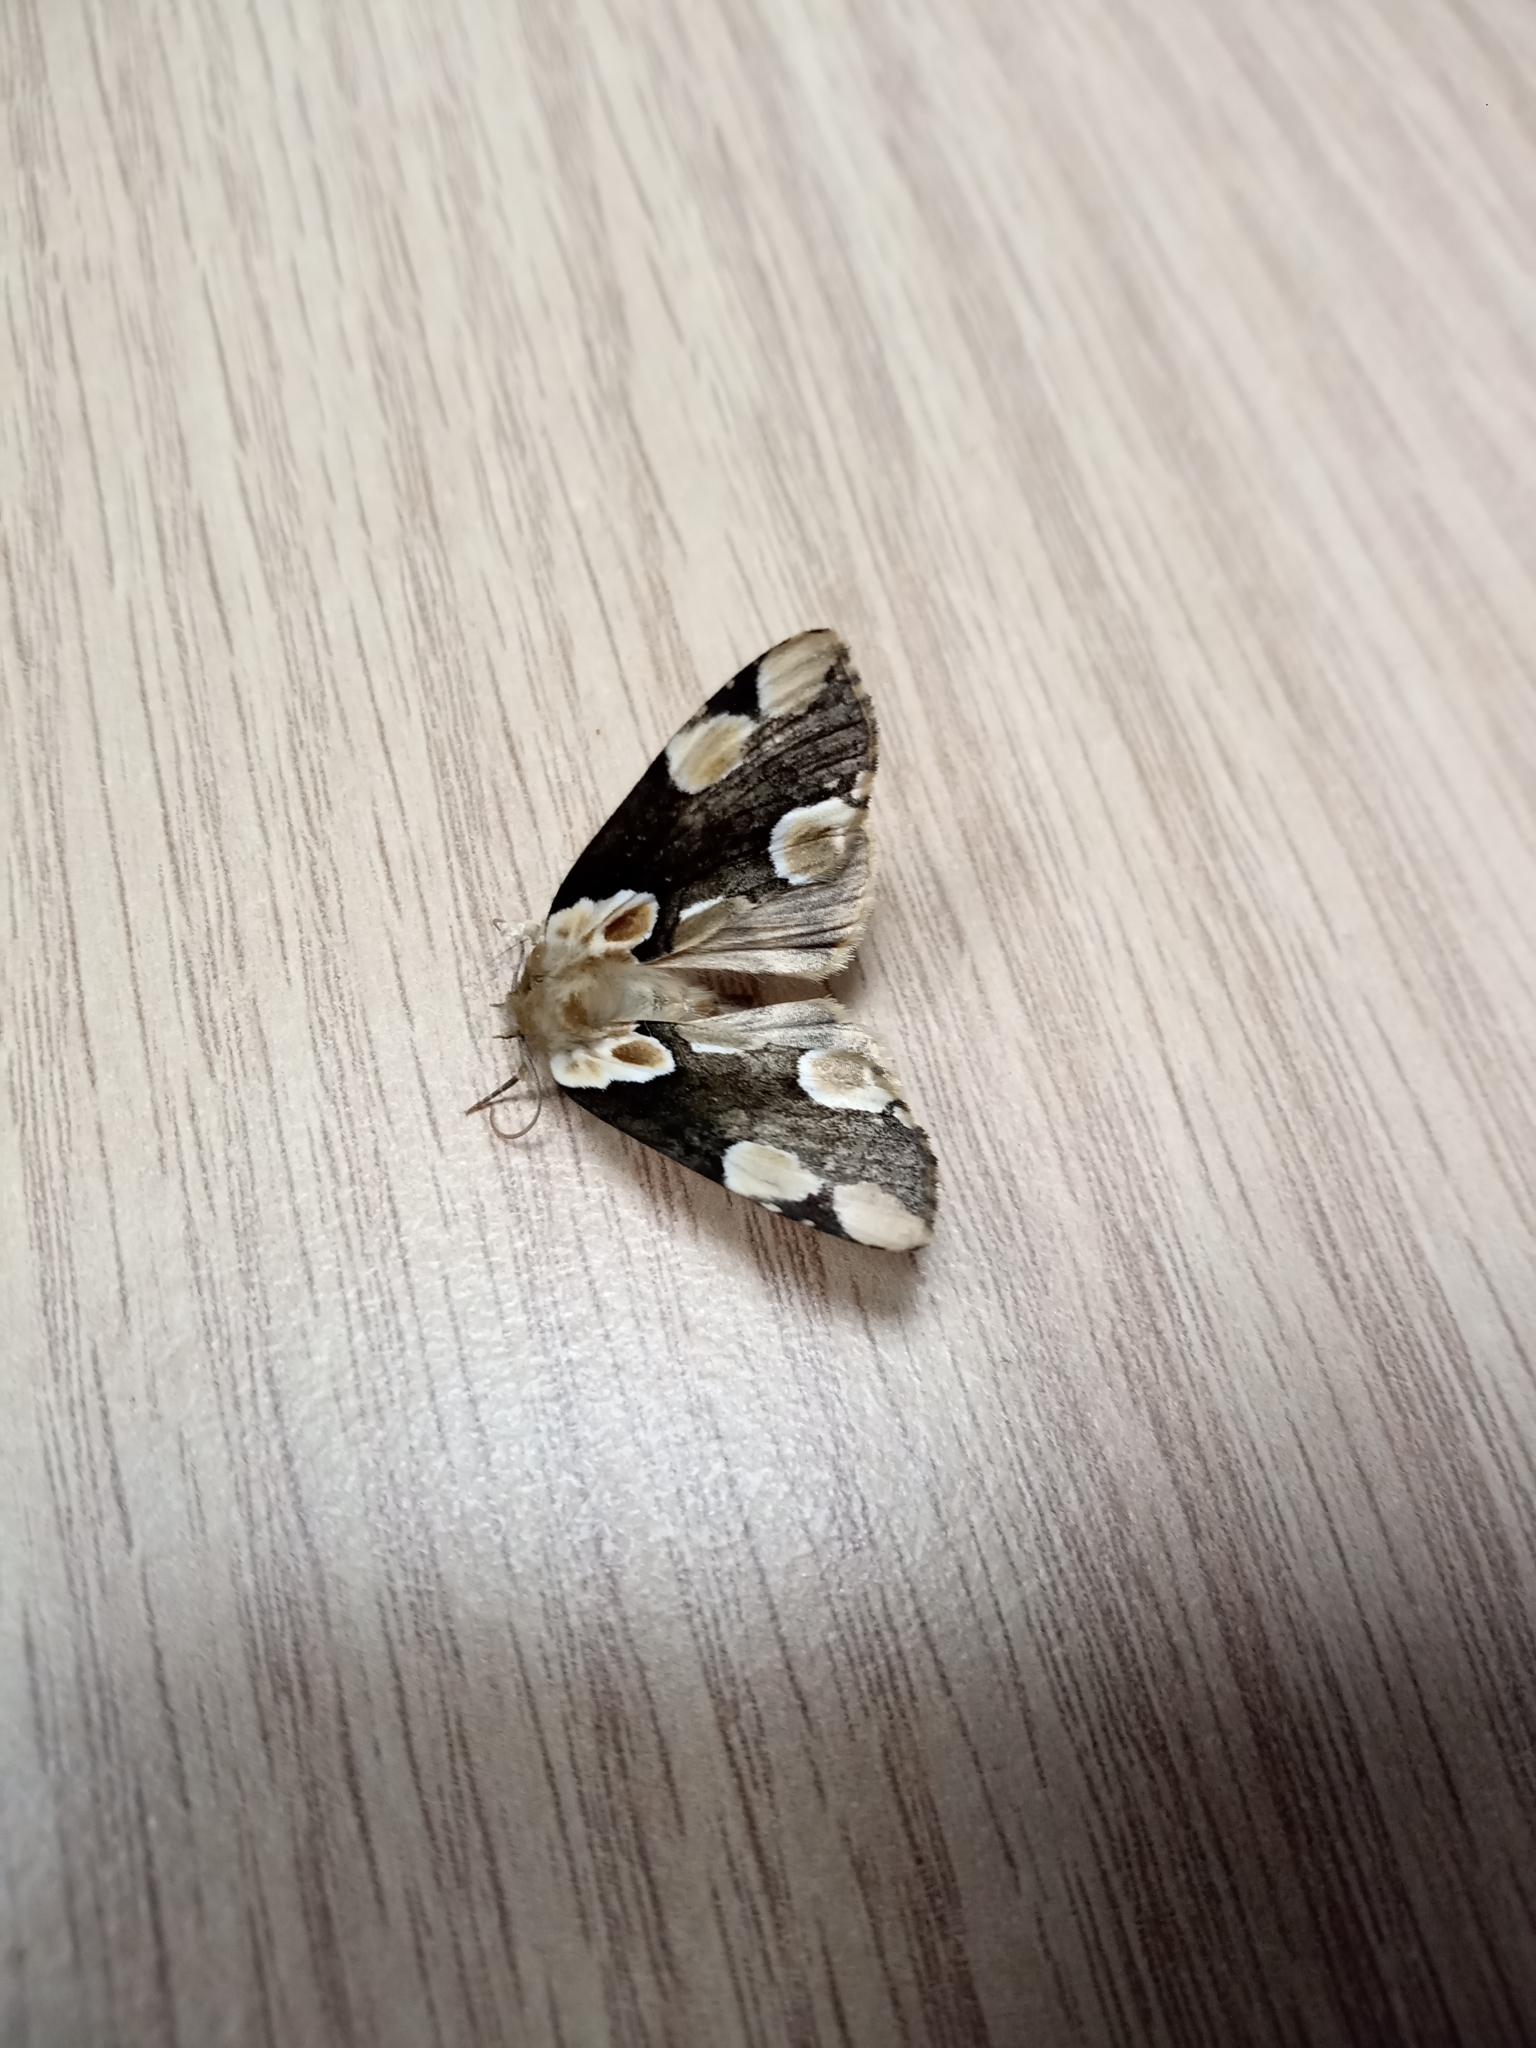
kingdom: Animalia
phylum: Arthropoda
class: Insecta
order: Lepidoptera
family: Drepanidae
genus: Thyatira
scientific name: Thyatira batis
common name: Peach blossom
